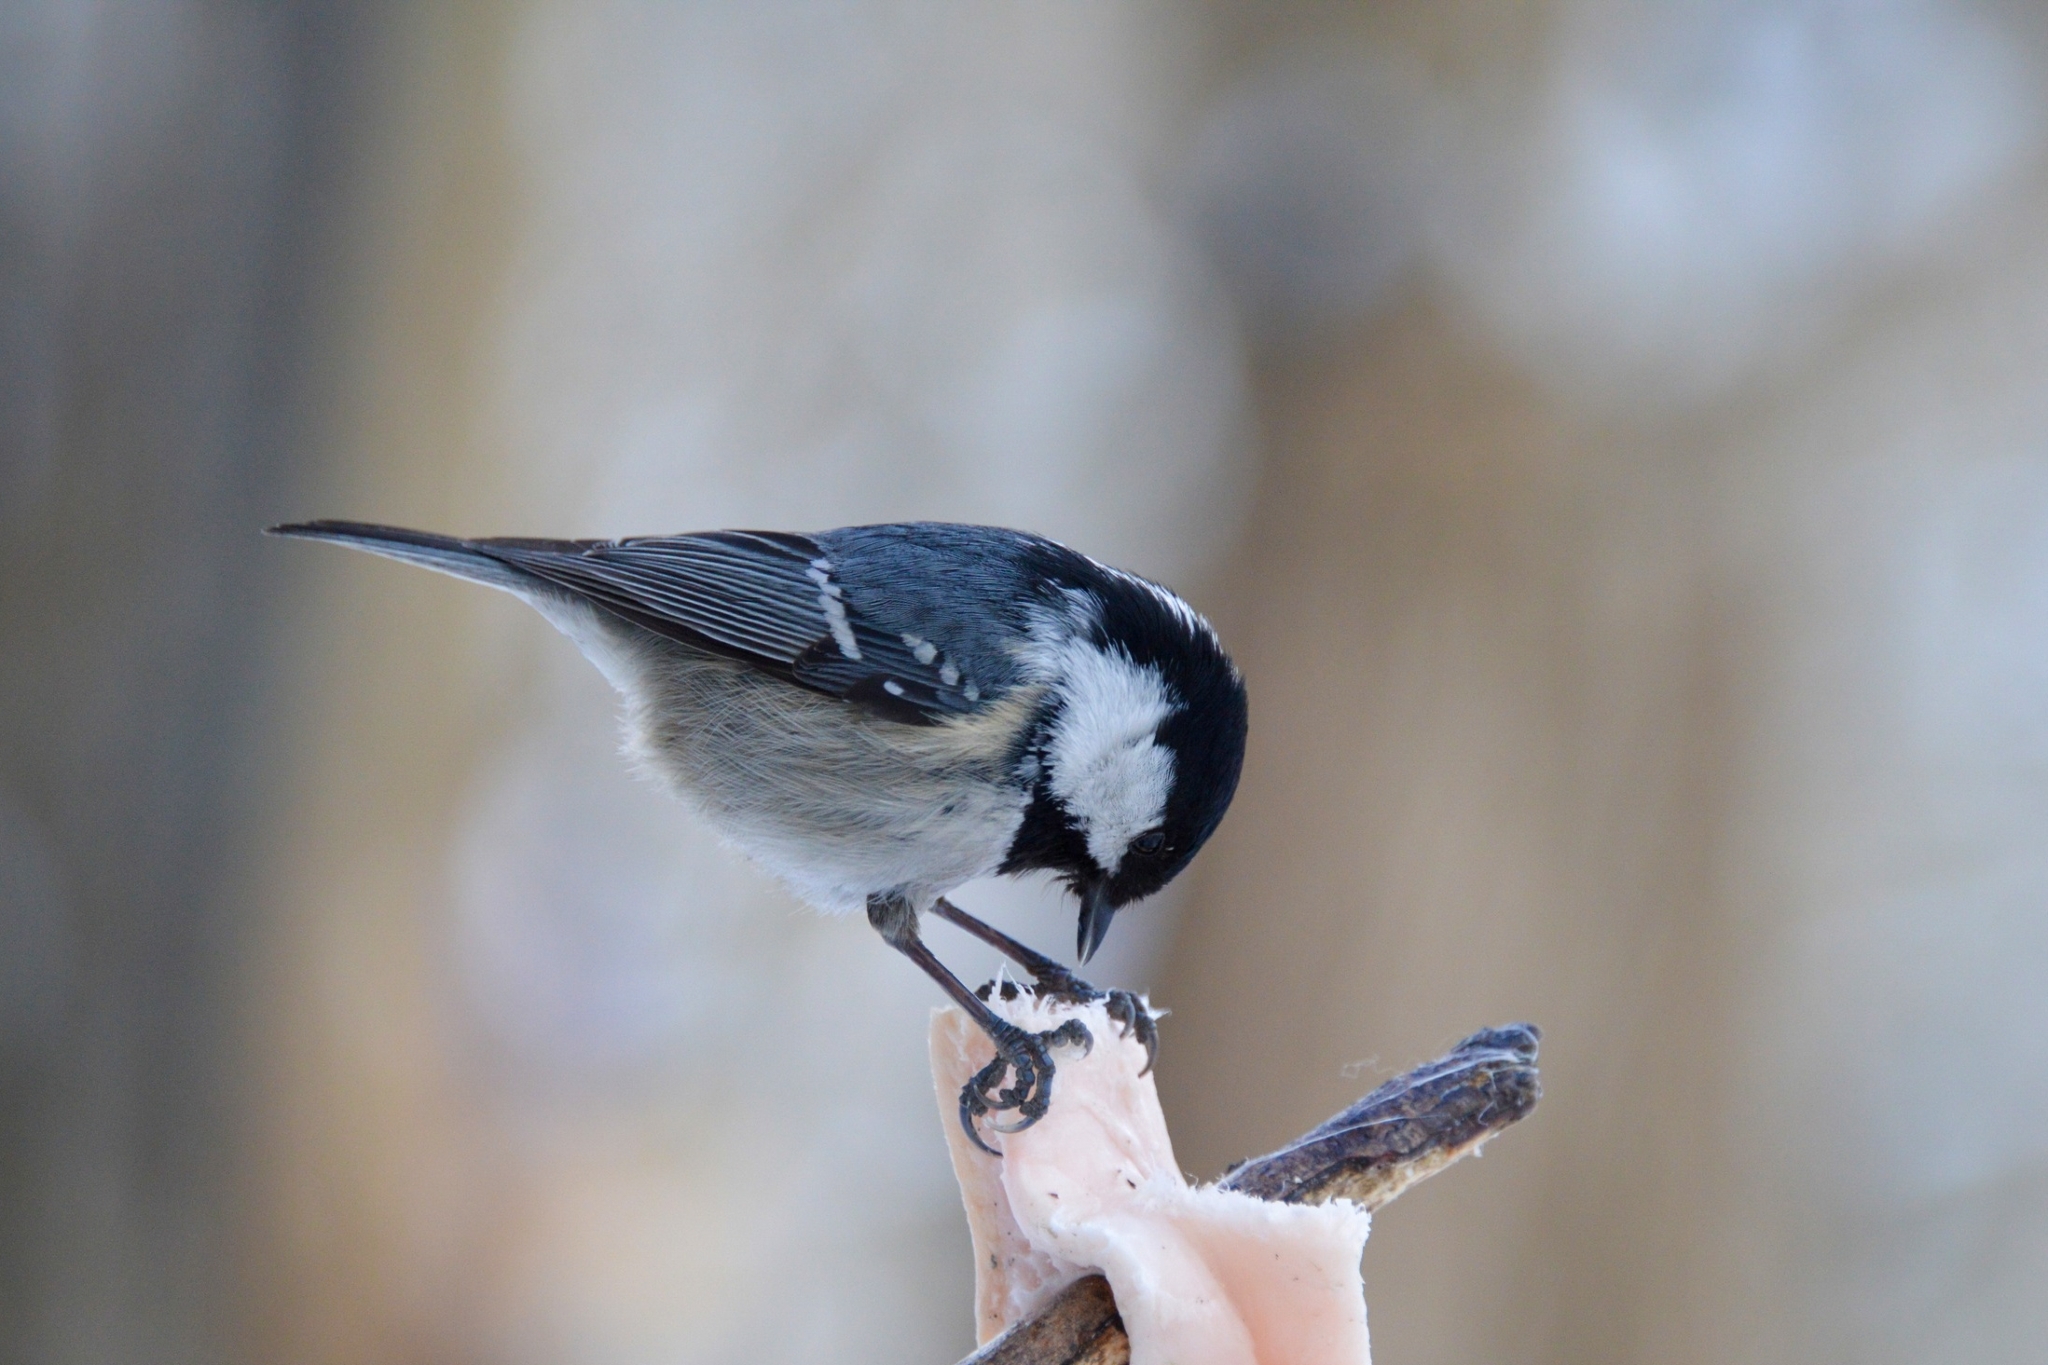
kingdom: Animalia
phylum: Chordata
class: Aves
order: Passeriformes
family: Paridae
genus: Periparus
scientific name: Periparus ater
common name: Coal tit
